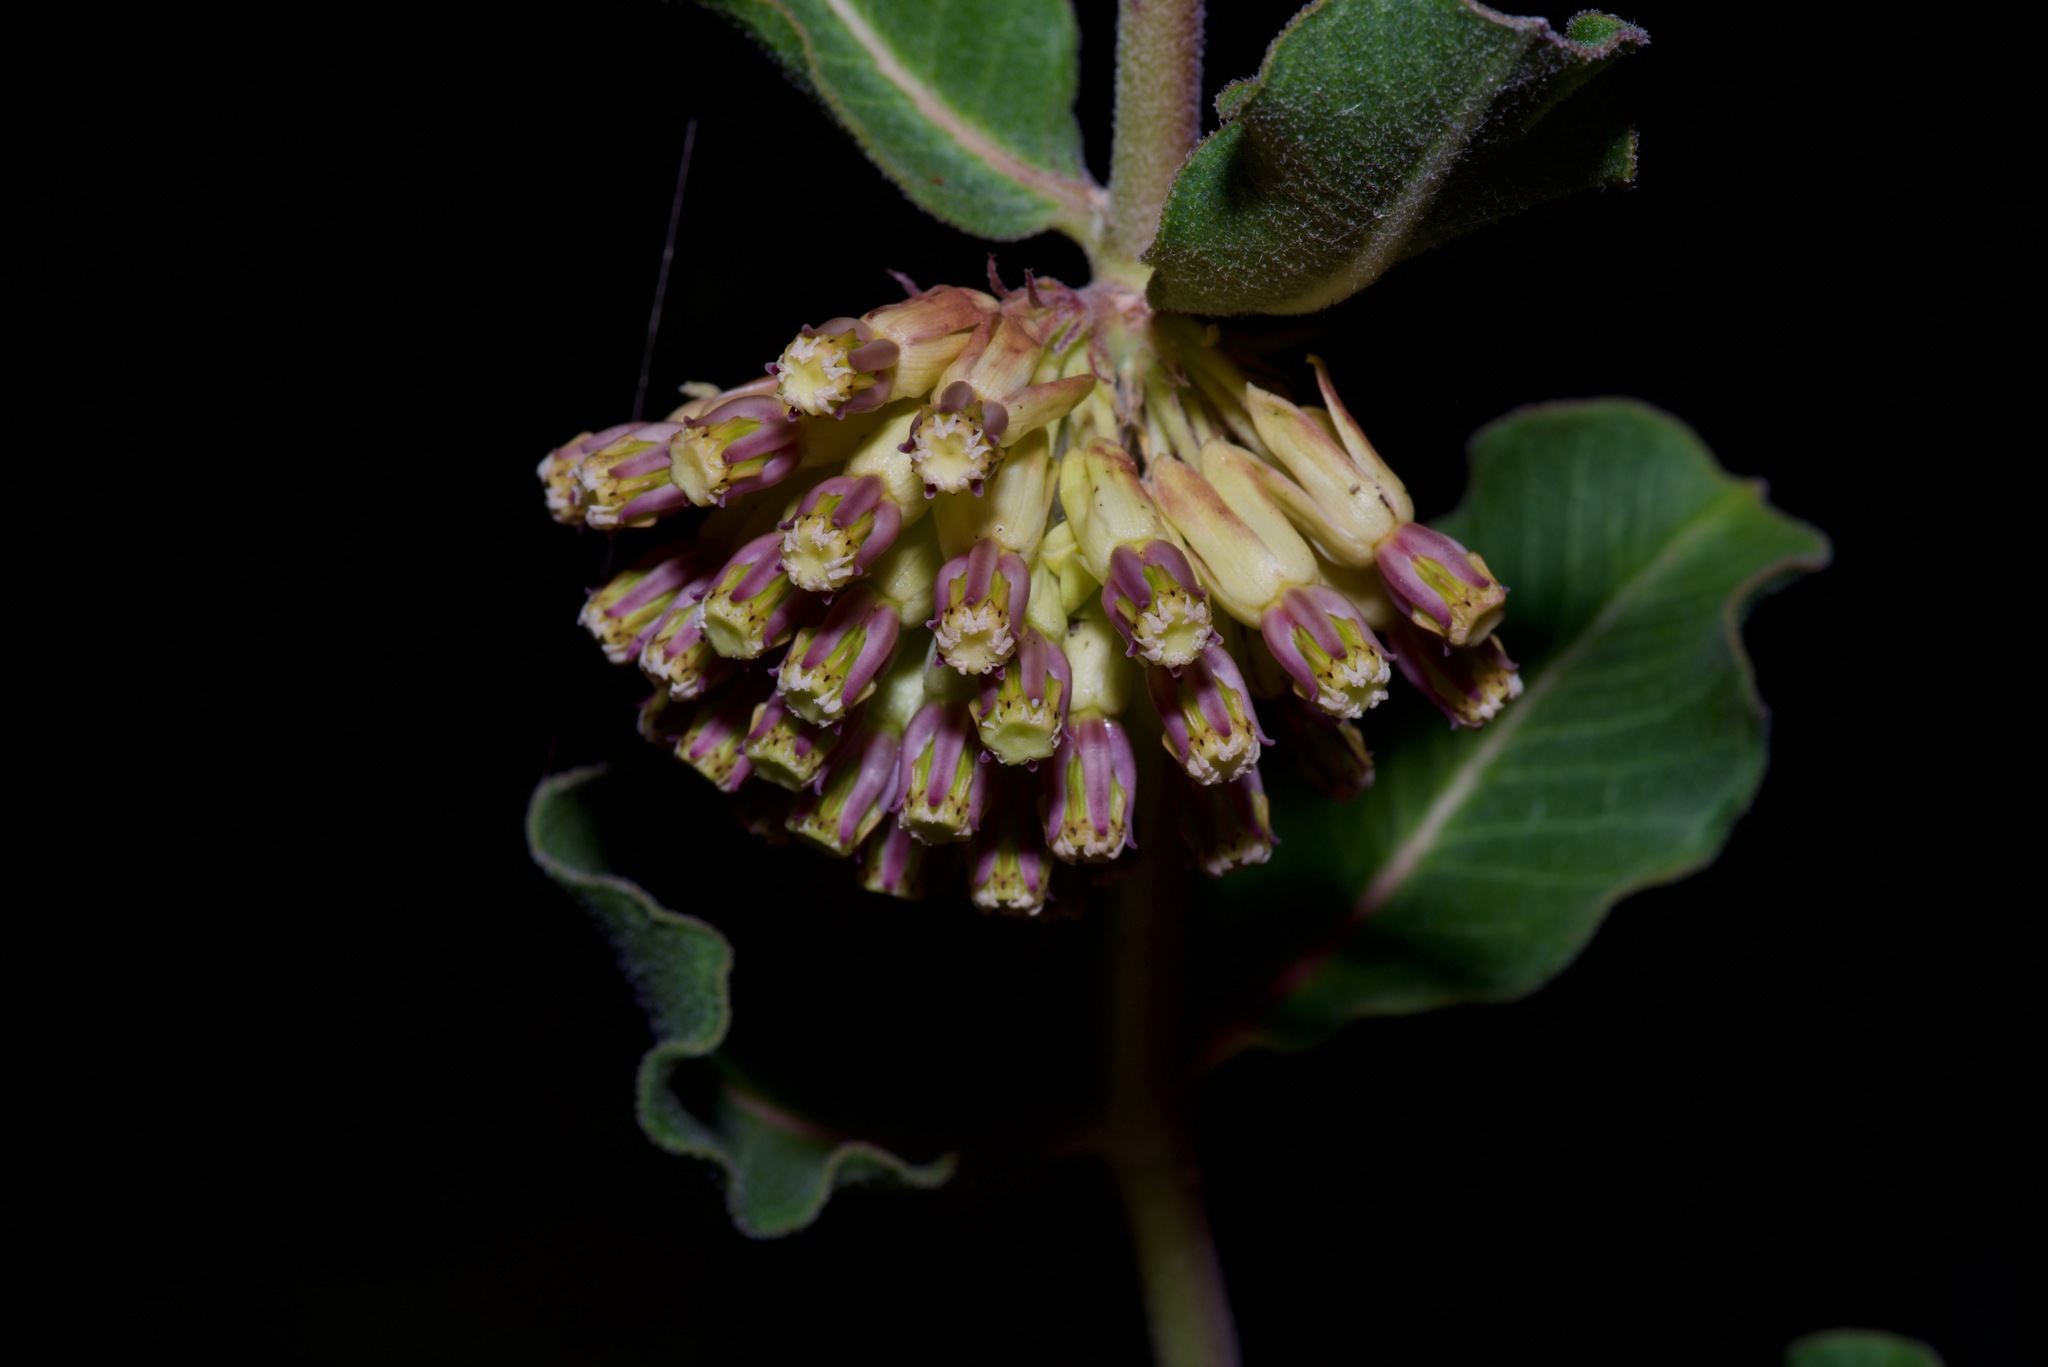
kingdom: Plantae
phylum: Tracheophyta
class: Magnoliopsida
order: Gentianales
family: Apocynaceae
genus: Asclepias
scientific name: Asclepias viridiflora
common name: Green comet milkweed
